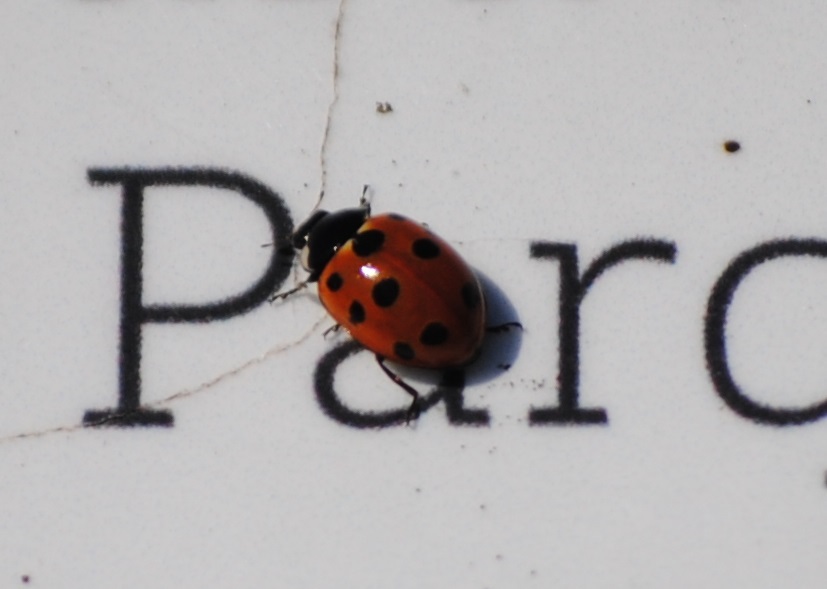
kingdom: Animalia
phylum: Arthropoda
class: Insecta
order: Coleoptera
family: Coccinellidae
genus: Coccinella
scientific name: Coccinella undecimpunctata
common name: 11-spot ladybird
